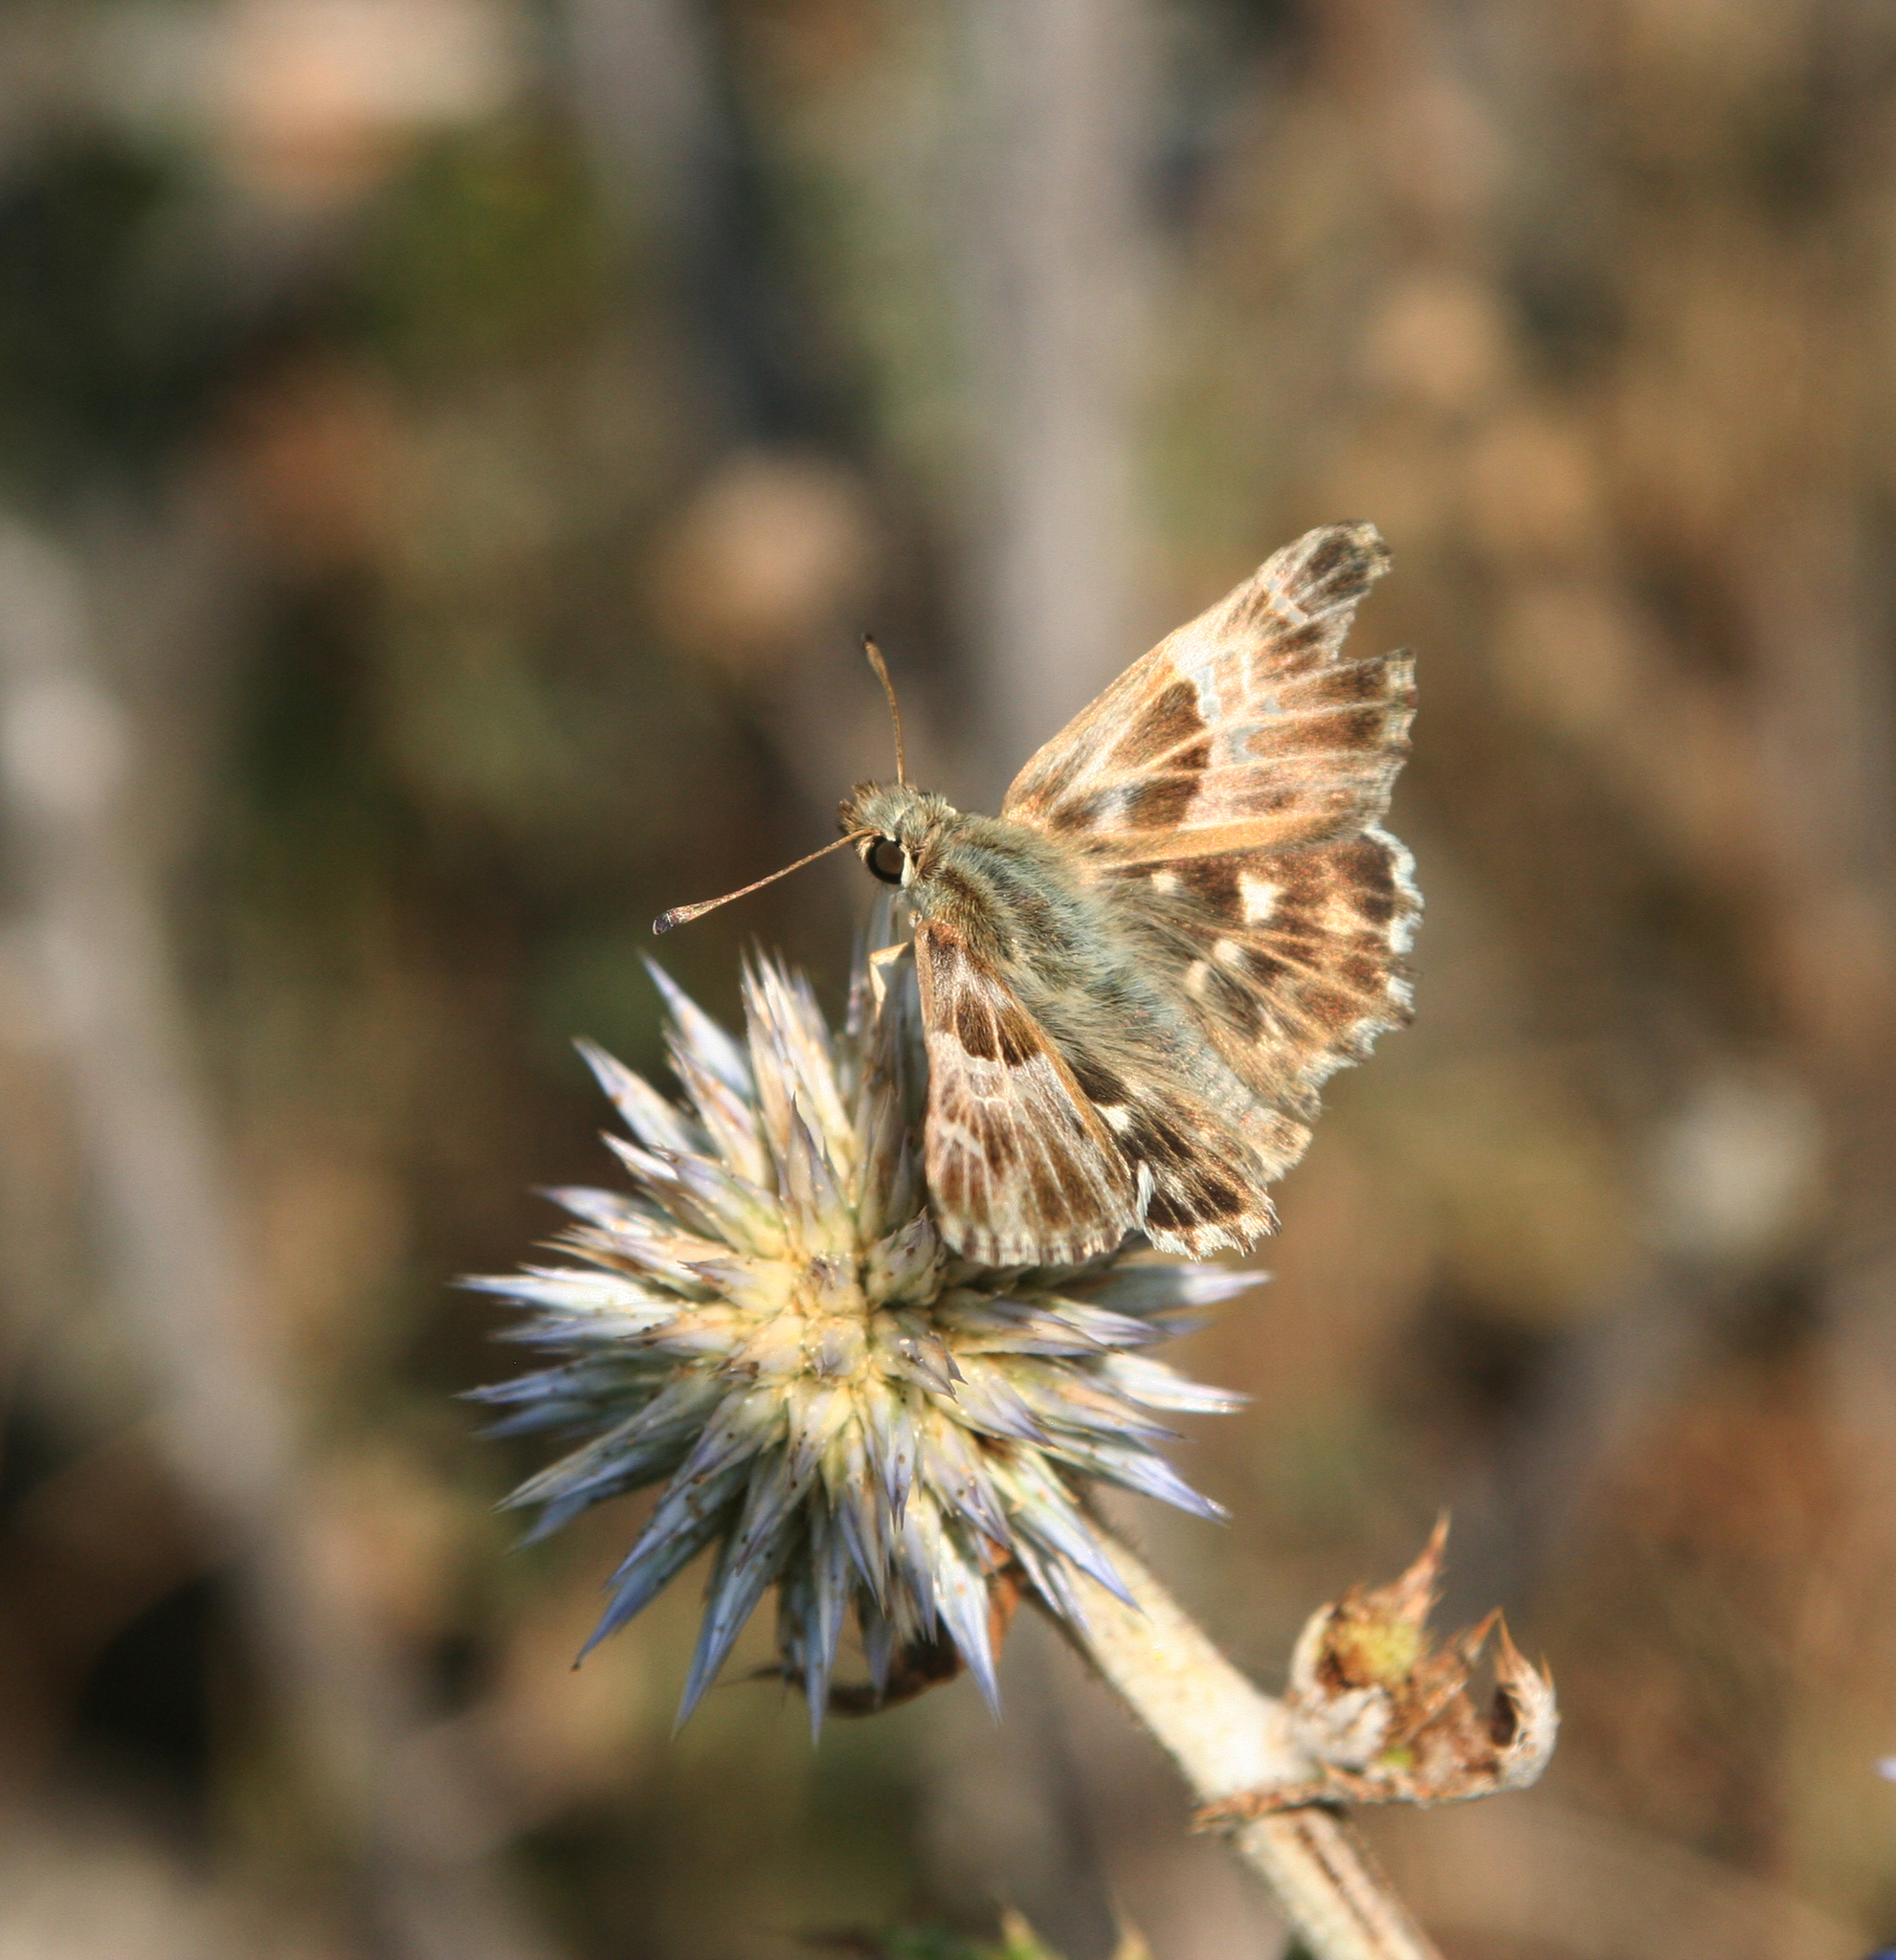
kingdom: Plantae
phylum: Tracheophyta
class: Magnoliopsida
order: Asterales
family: Asteraceae
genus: Echinops
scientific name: Echinops sphaerocephalus
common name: Glandular globe-thistle
